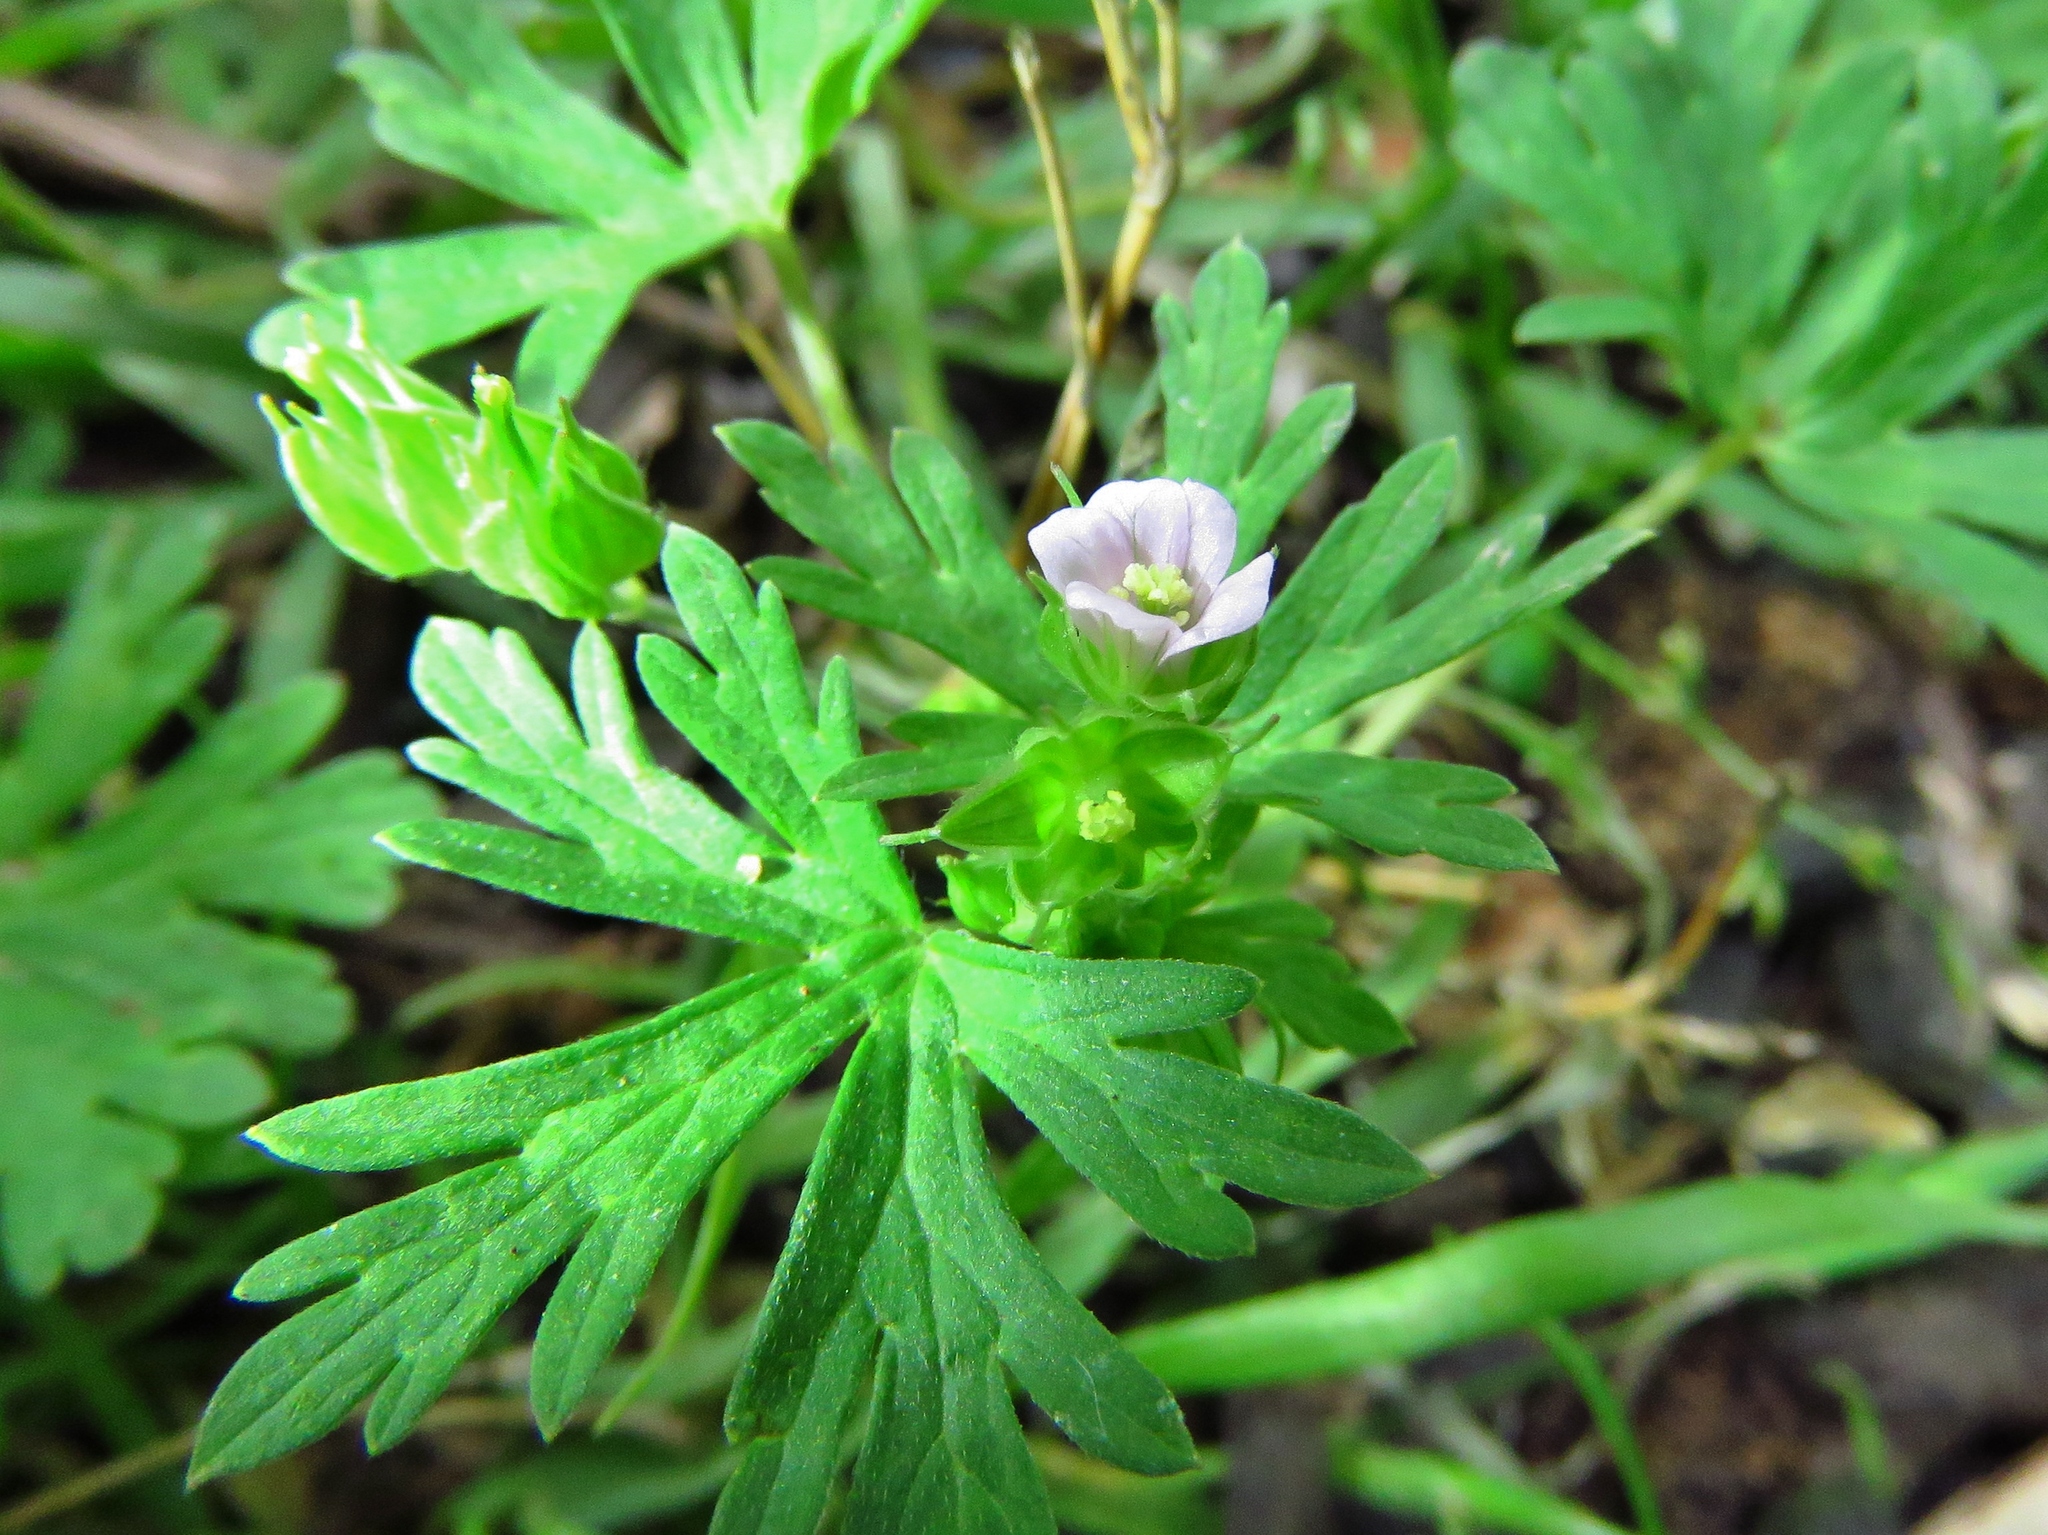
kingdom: Plantae
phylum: Tracheophyta
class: Magnoliopsida
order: Geraniales
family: Geraniaceae
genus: Geranium
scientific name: Geranium carolinianum
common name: Carolina crane's-bill
